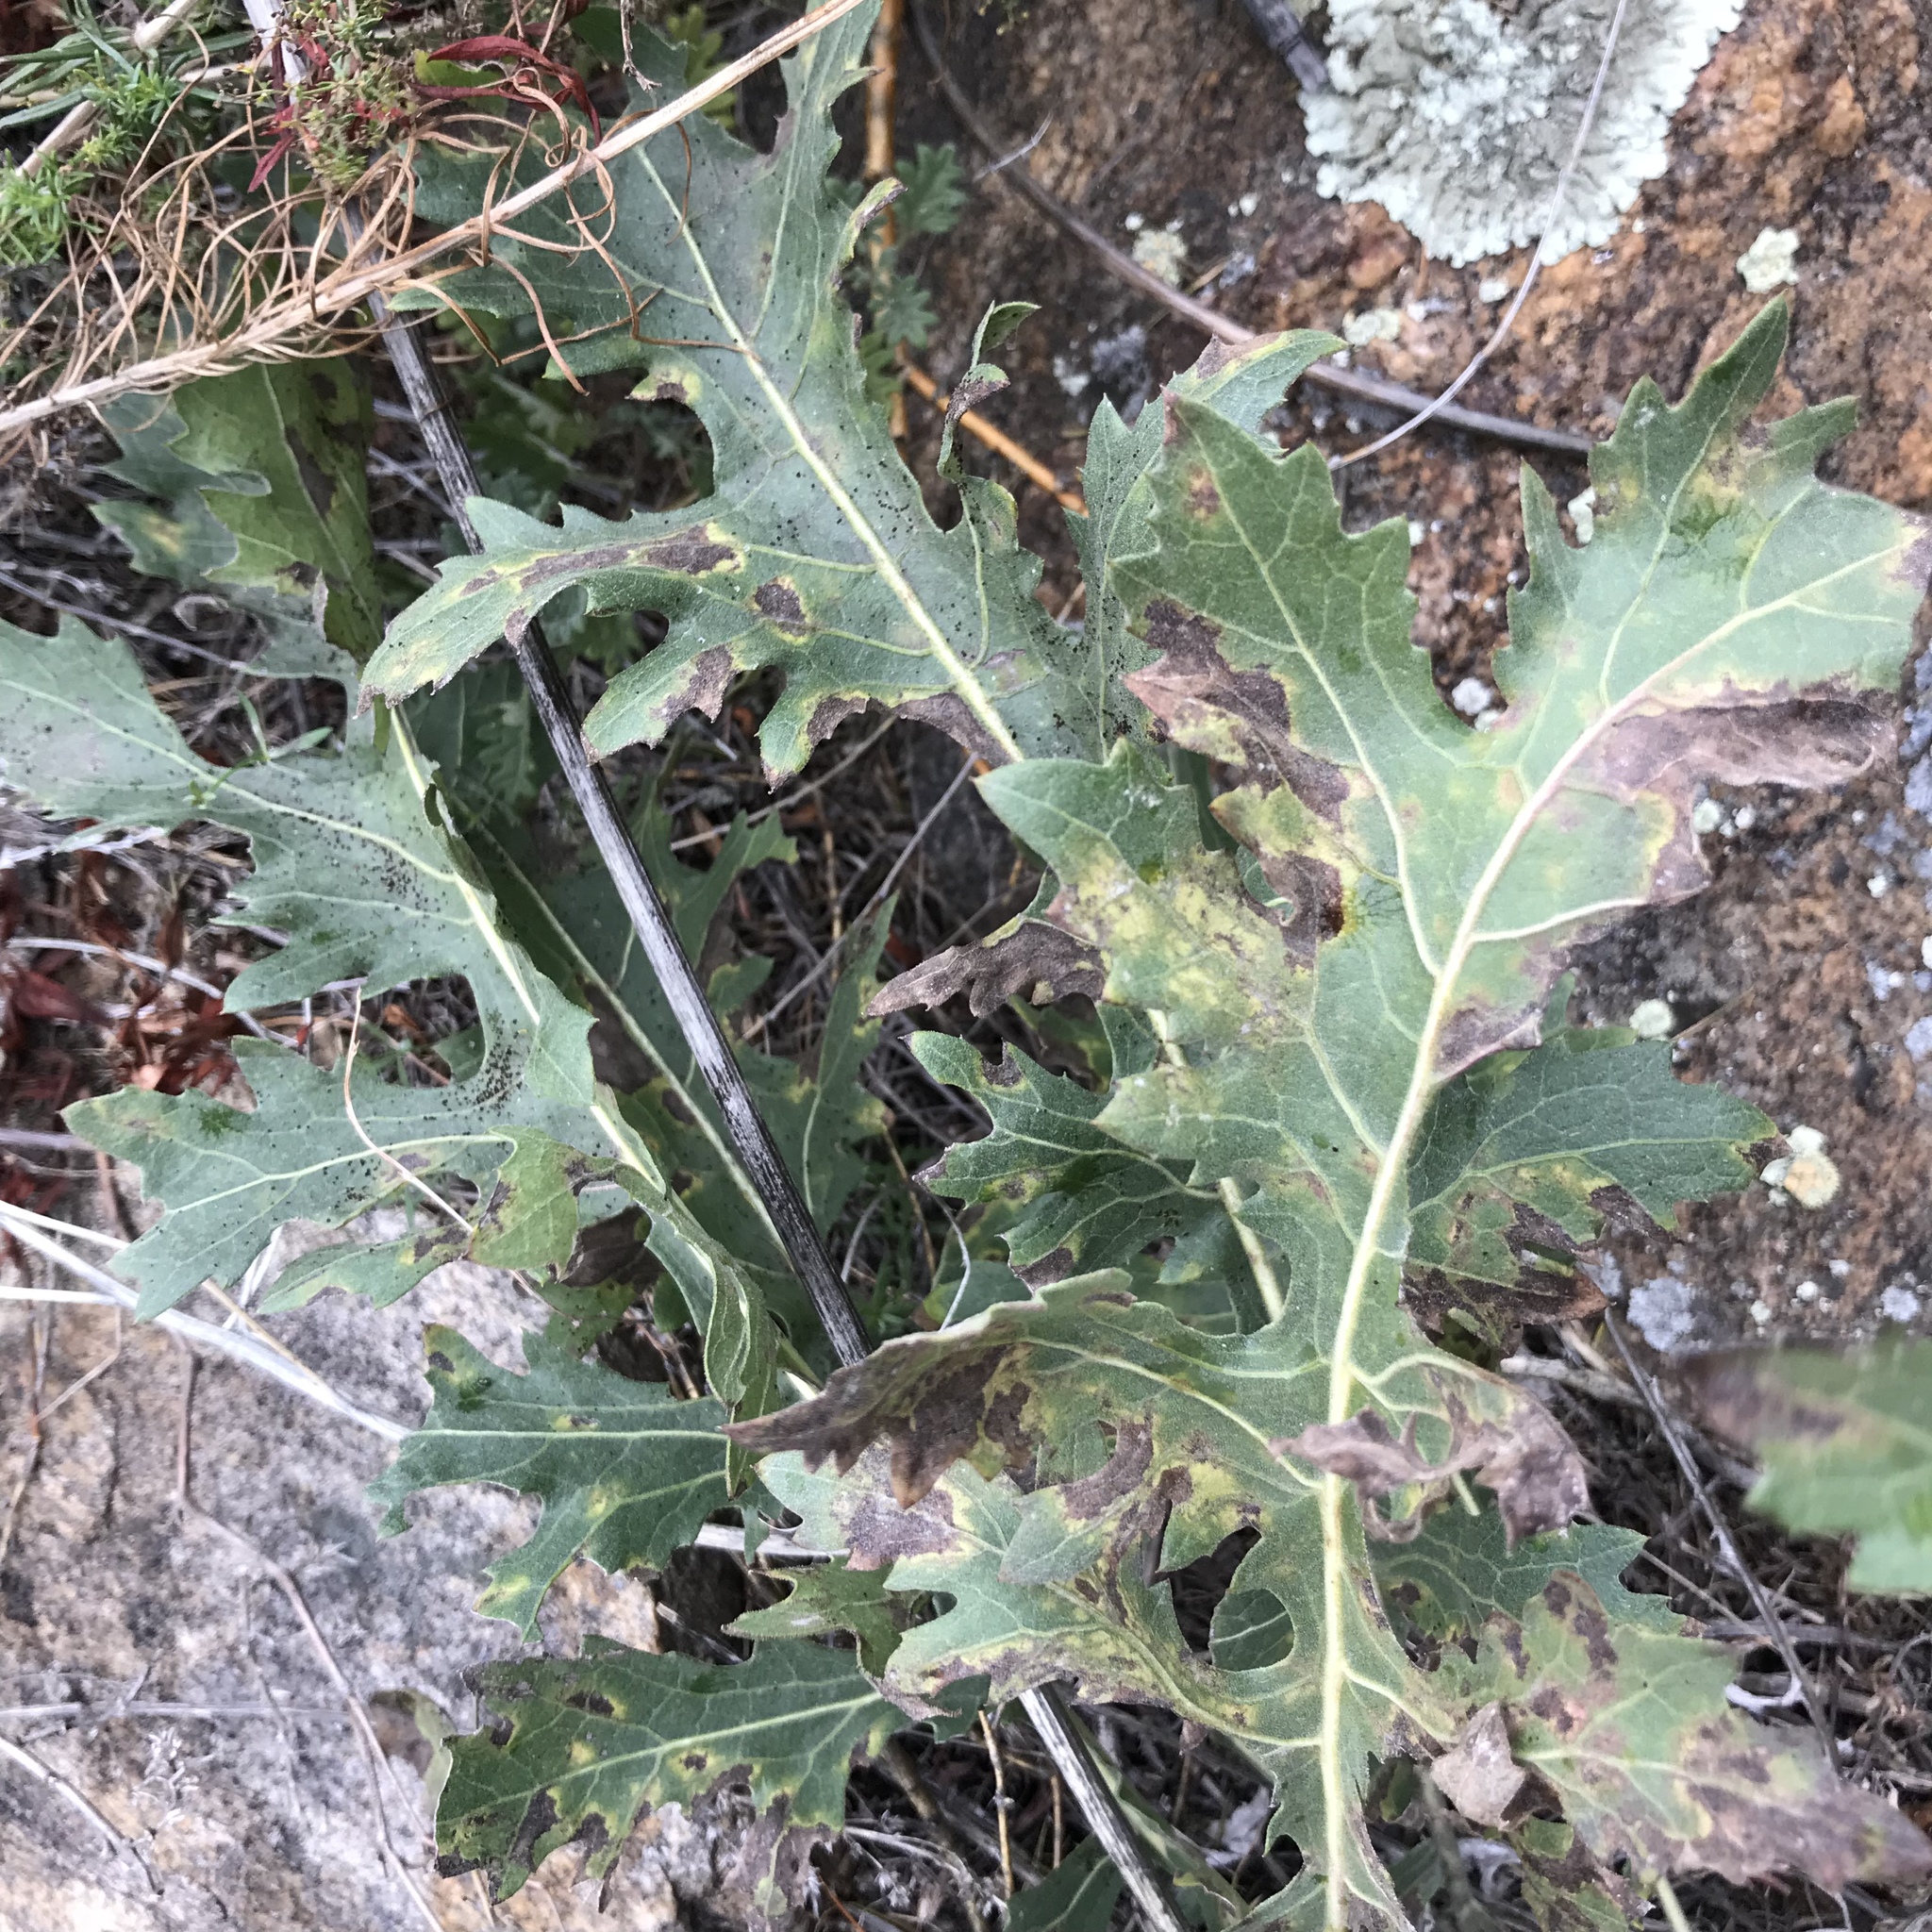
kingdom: Plantae
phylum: Tracheophyta
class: Magnoliopsida
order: Asterales
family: Asteraceae
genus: Klasea
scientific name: Klasea centauroides
